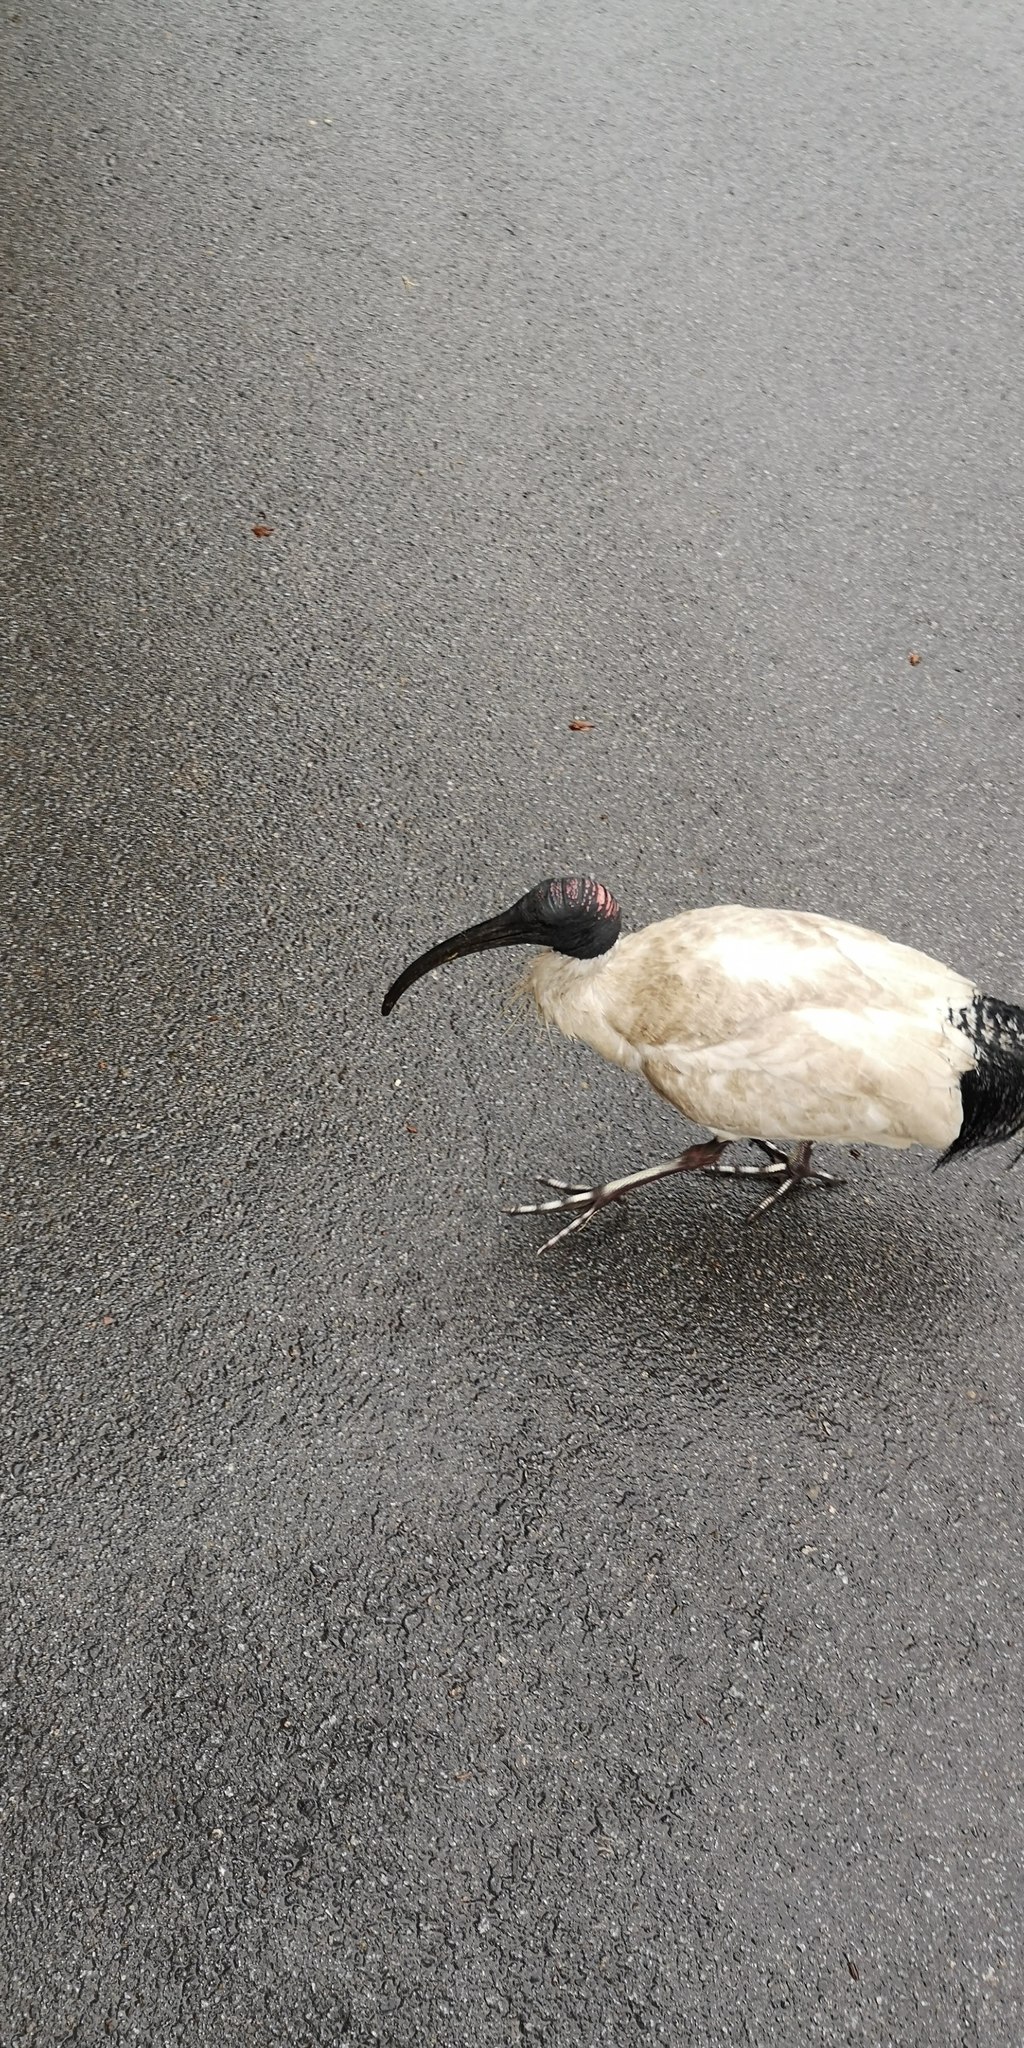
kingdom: Animalia
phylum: Chordata
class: Aves
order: Pelecaniformes
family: Threskiornithidae
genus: Threskiornis
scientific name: Threskiornis molucca
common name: Australian white ibis
